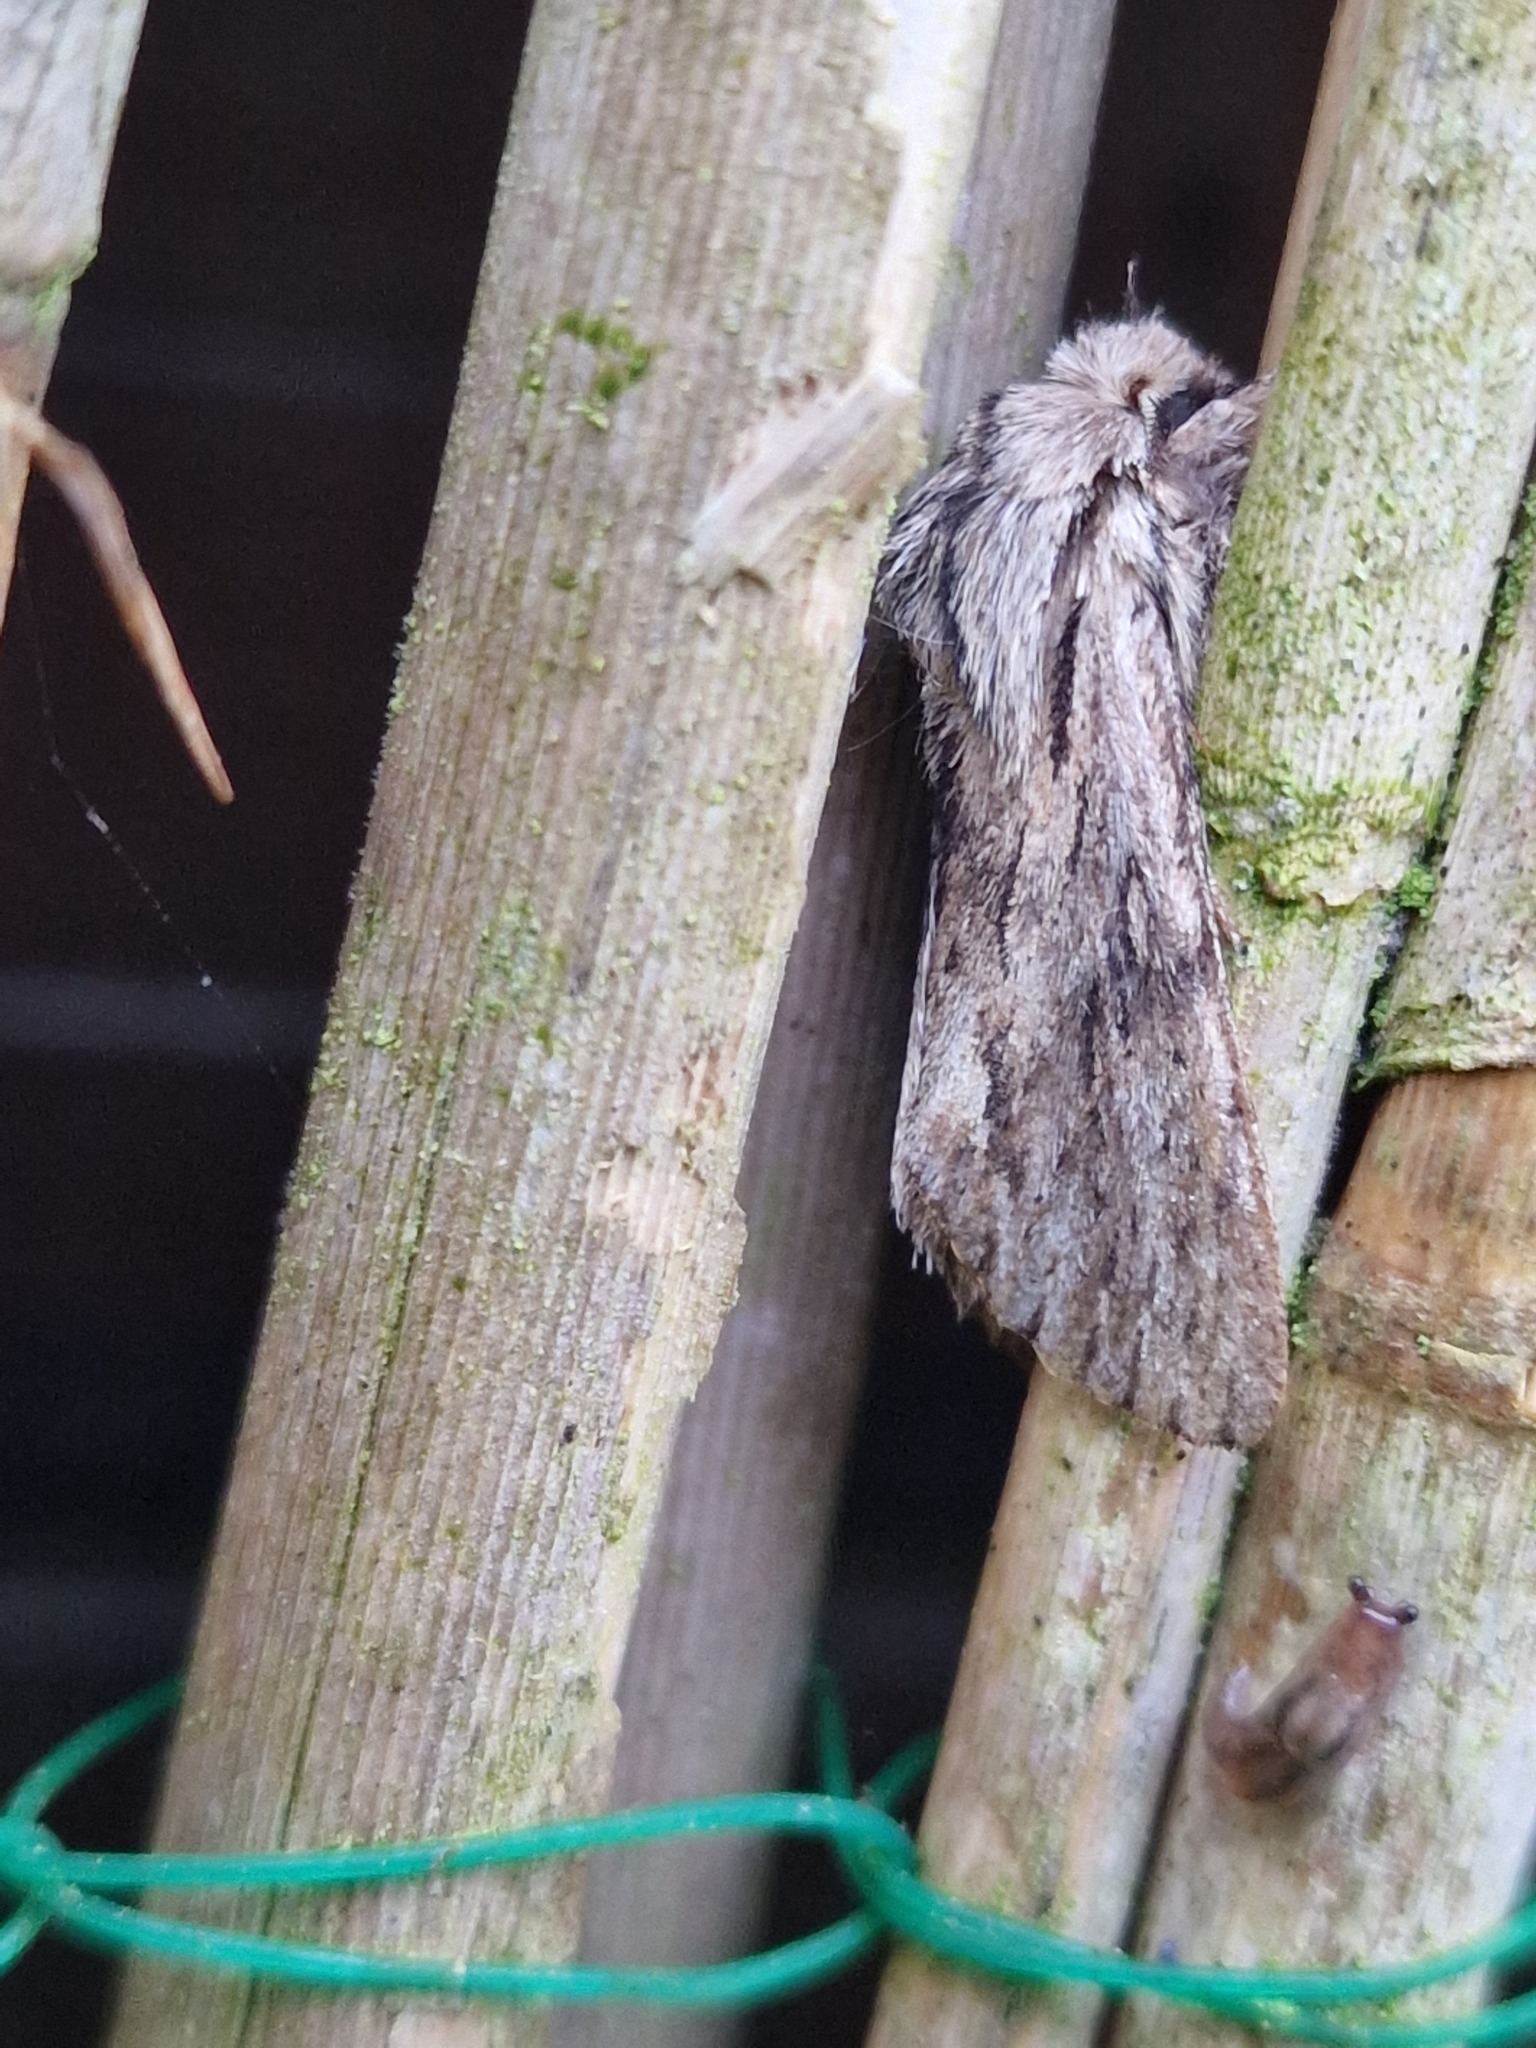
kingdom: Animalia
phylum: Arthropoda
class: Insecta
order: Lepidoptera
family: Noctuidae
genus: Asteroscopus
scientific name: Asteroscopus sphinx
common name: The sprawler
